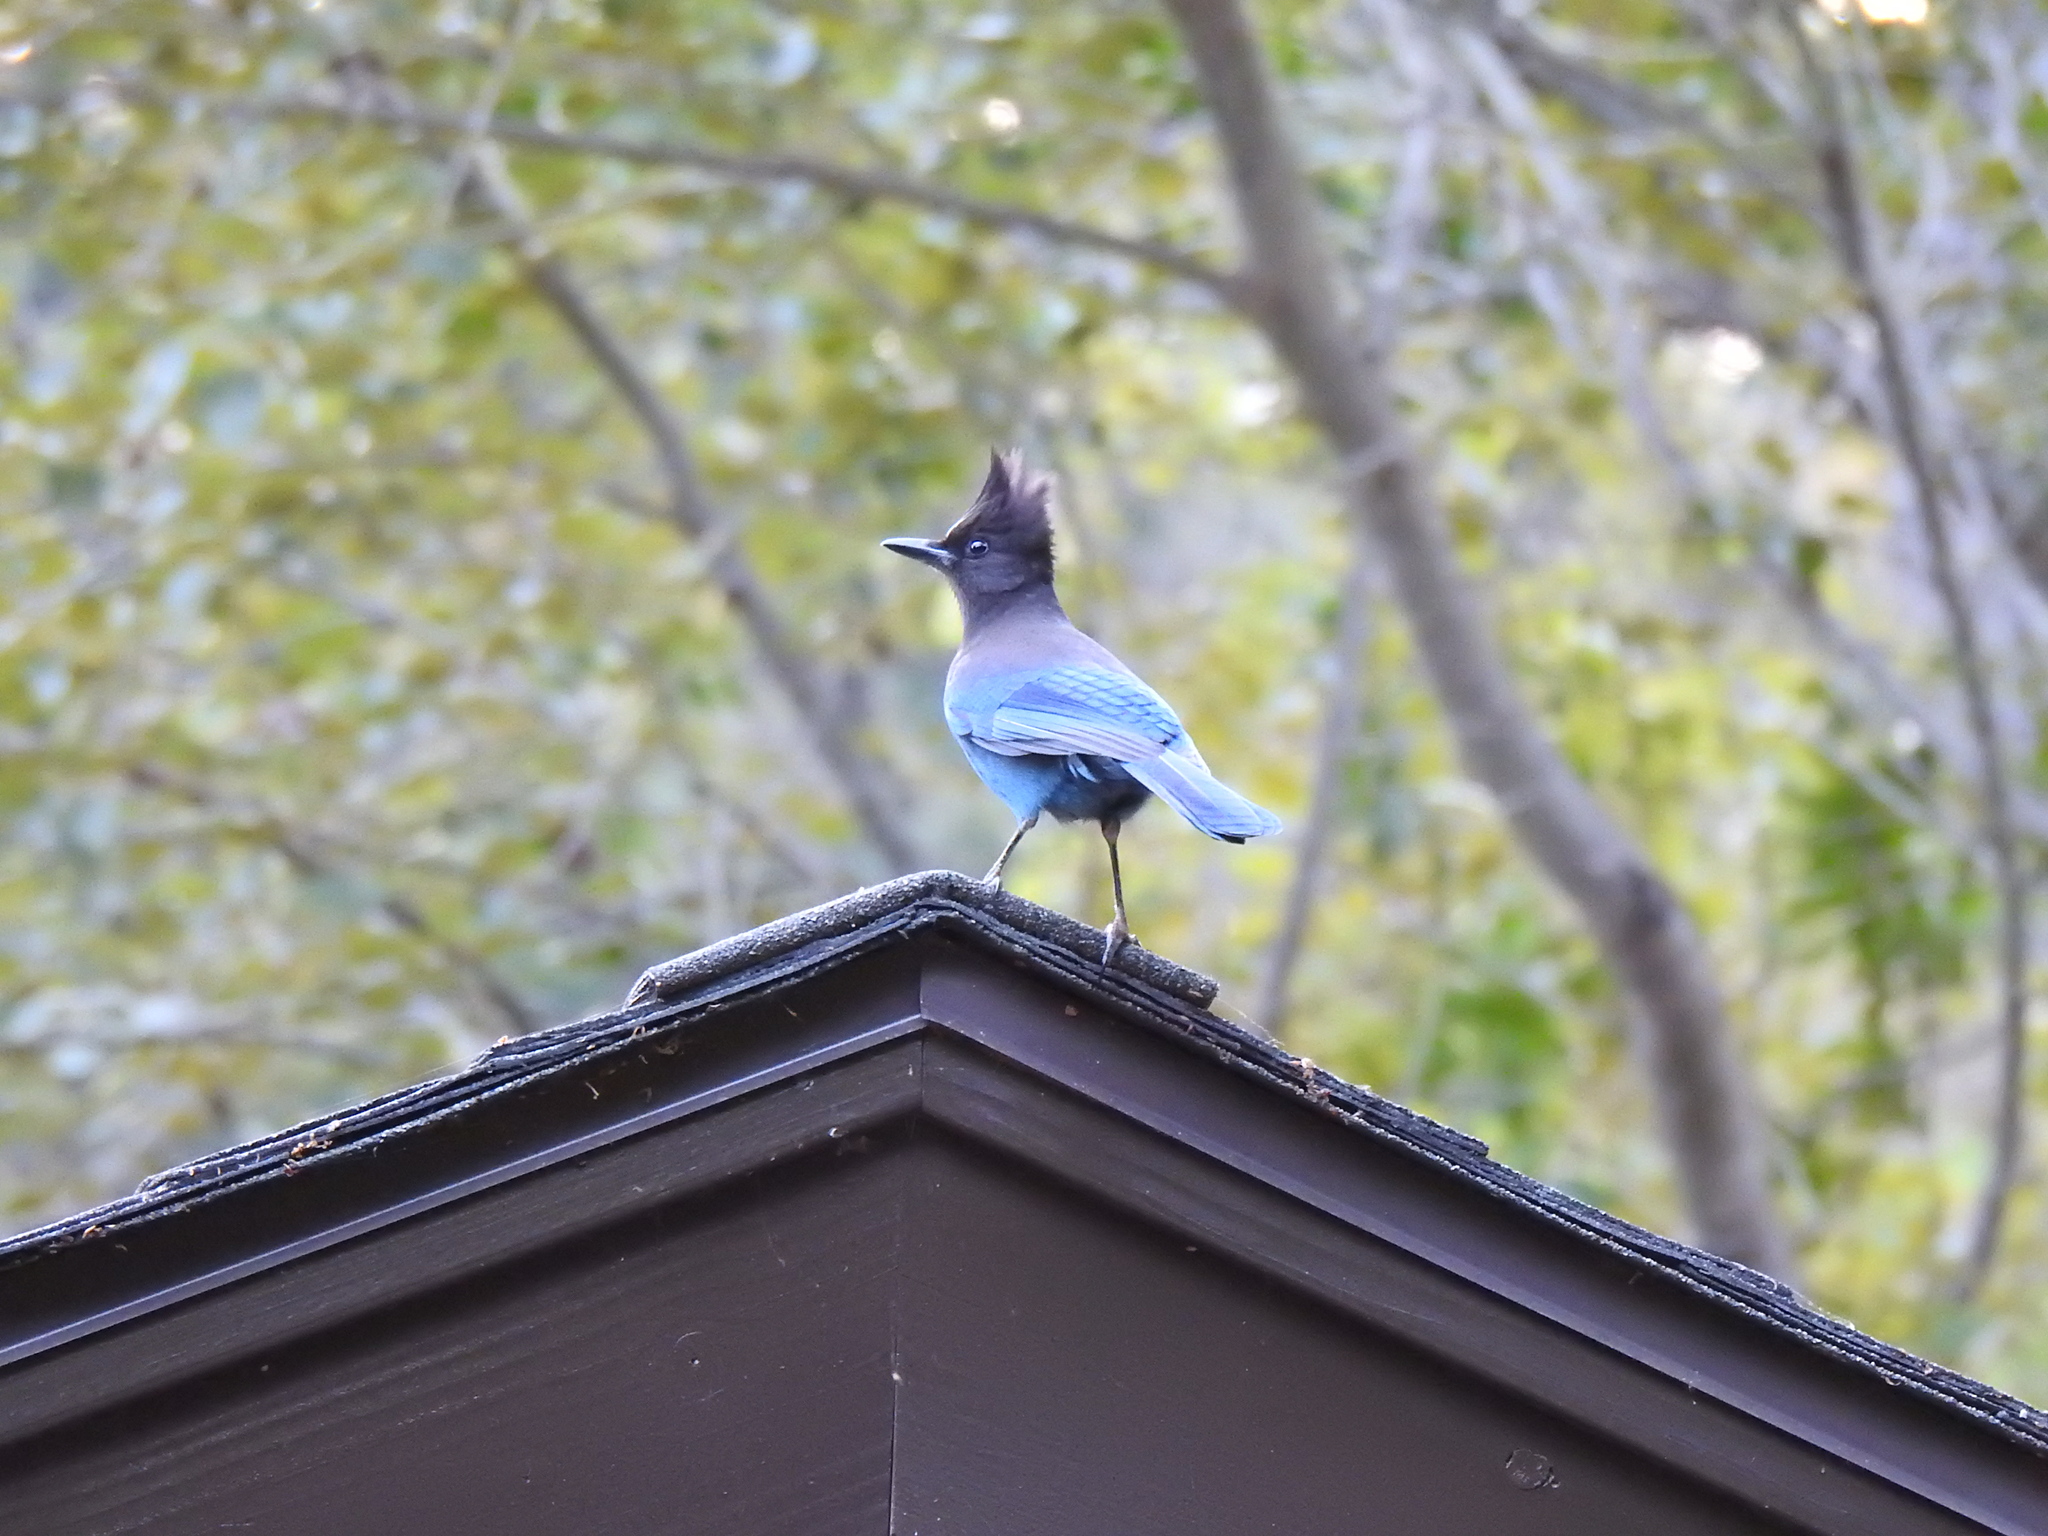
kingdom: Animalia
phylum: Chordata
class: Aves
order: Passeriformes
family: Corvidae
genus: Cyanocitta
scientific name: Cyanocitta stelleri
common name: Steller's jay
